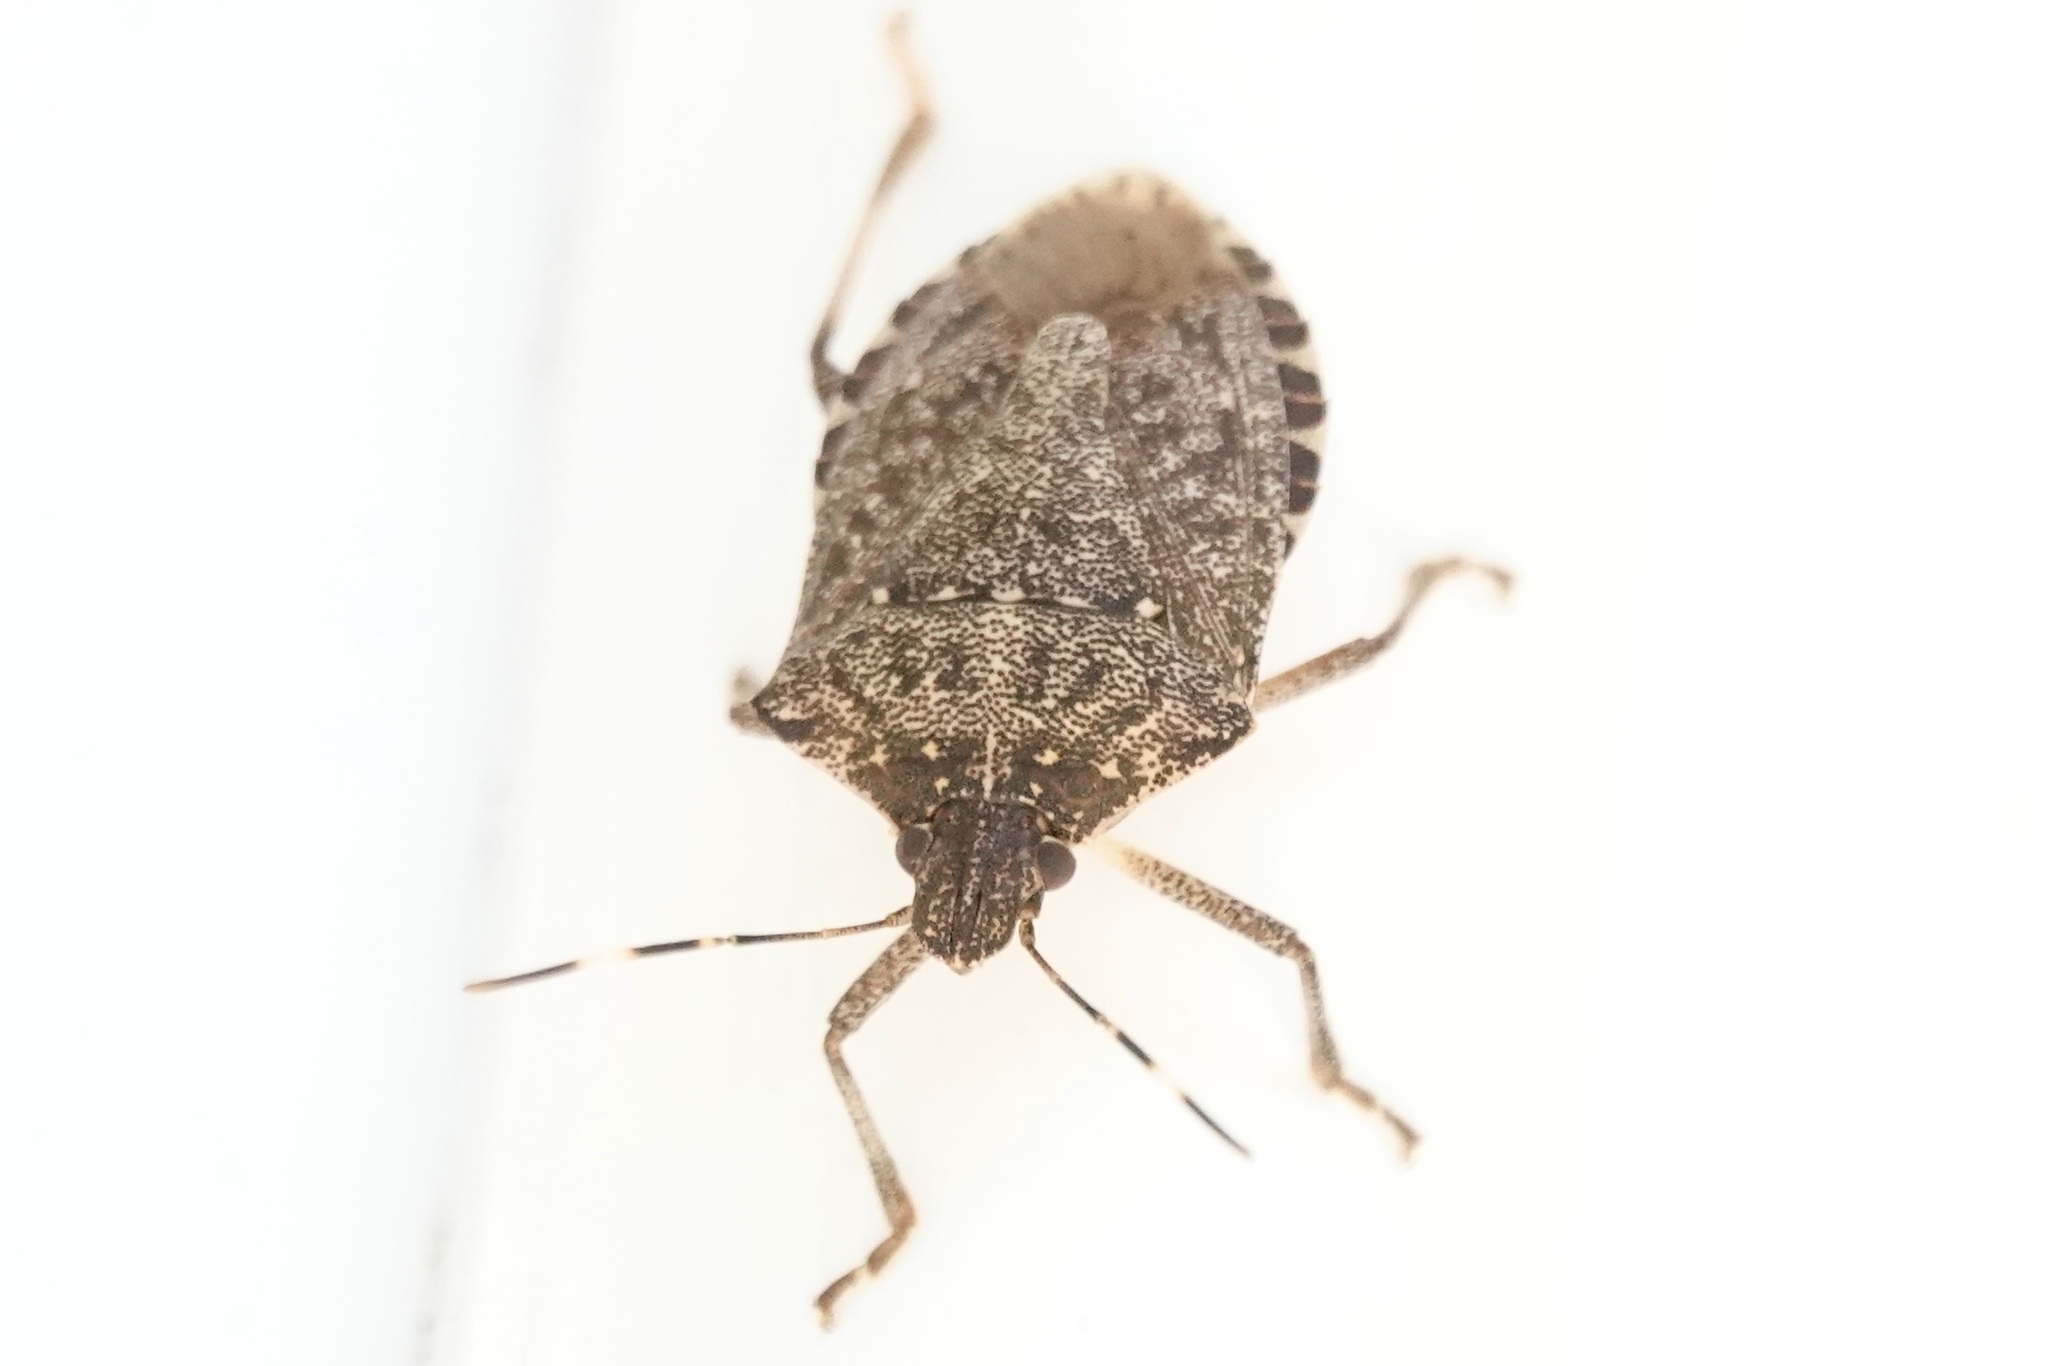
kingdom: Animalia
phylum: Arthropoda
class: Insecta
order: Hemiptera
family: Pentatomidae
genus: Halyomorpha
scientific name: Halyomorpha halys
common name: Brown marmorated stink bug
